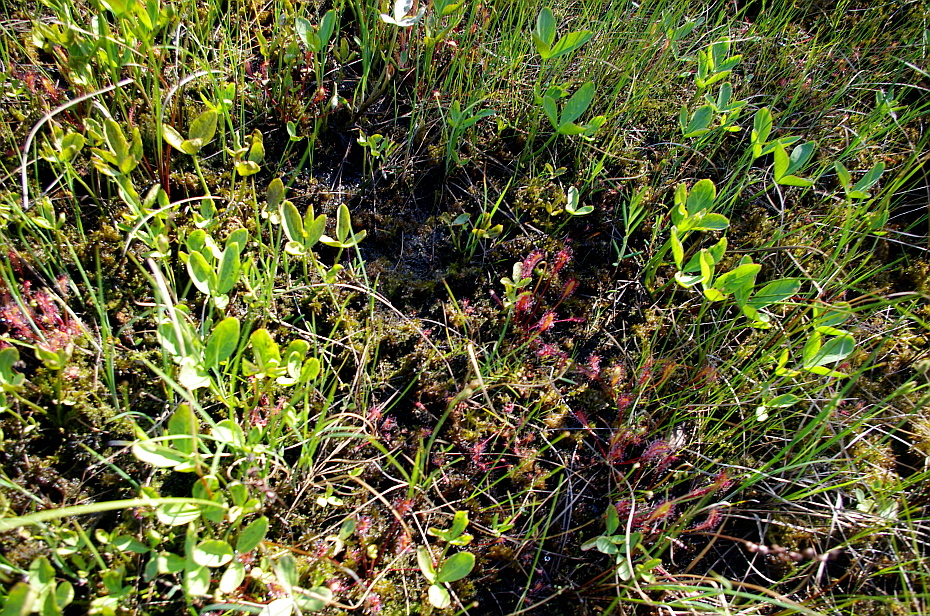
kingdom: Plantae
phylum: Tracheophyta
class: Magnoliopsida
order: Asterales
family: Menyanthaceae
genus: Menyanthes
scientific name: Menyanthes trifoliata
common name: Bogbean
